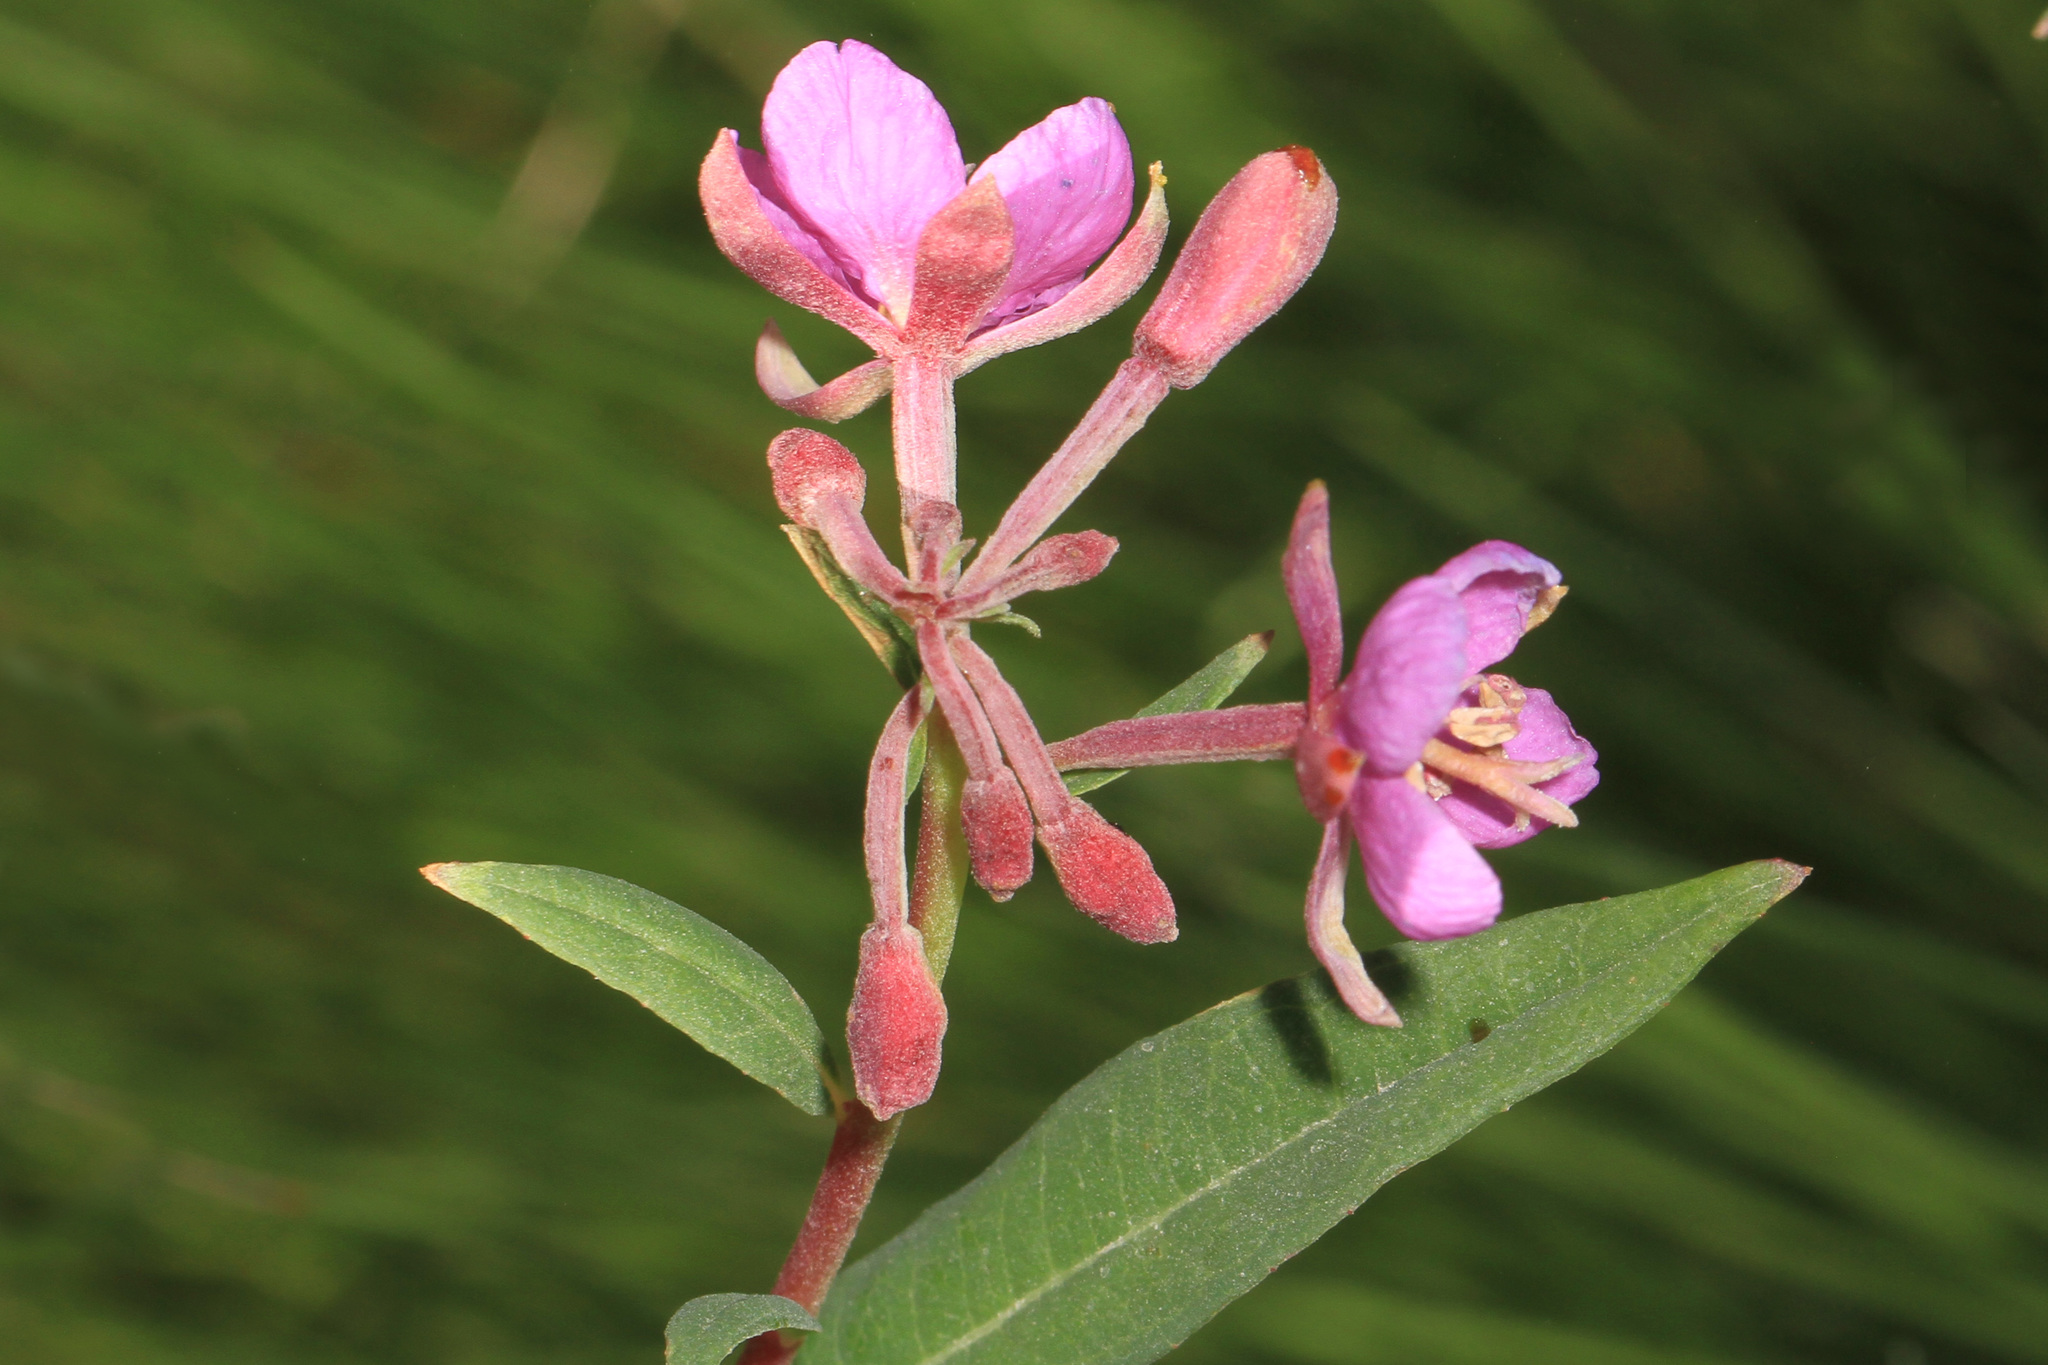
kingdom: Plantae
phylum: Tracheophyta
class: Magnoliopsida
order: Myrtales
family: Onagraceae
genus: Chamaenerion
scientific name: Chamaenerion angustifolium
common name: Fireweed
